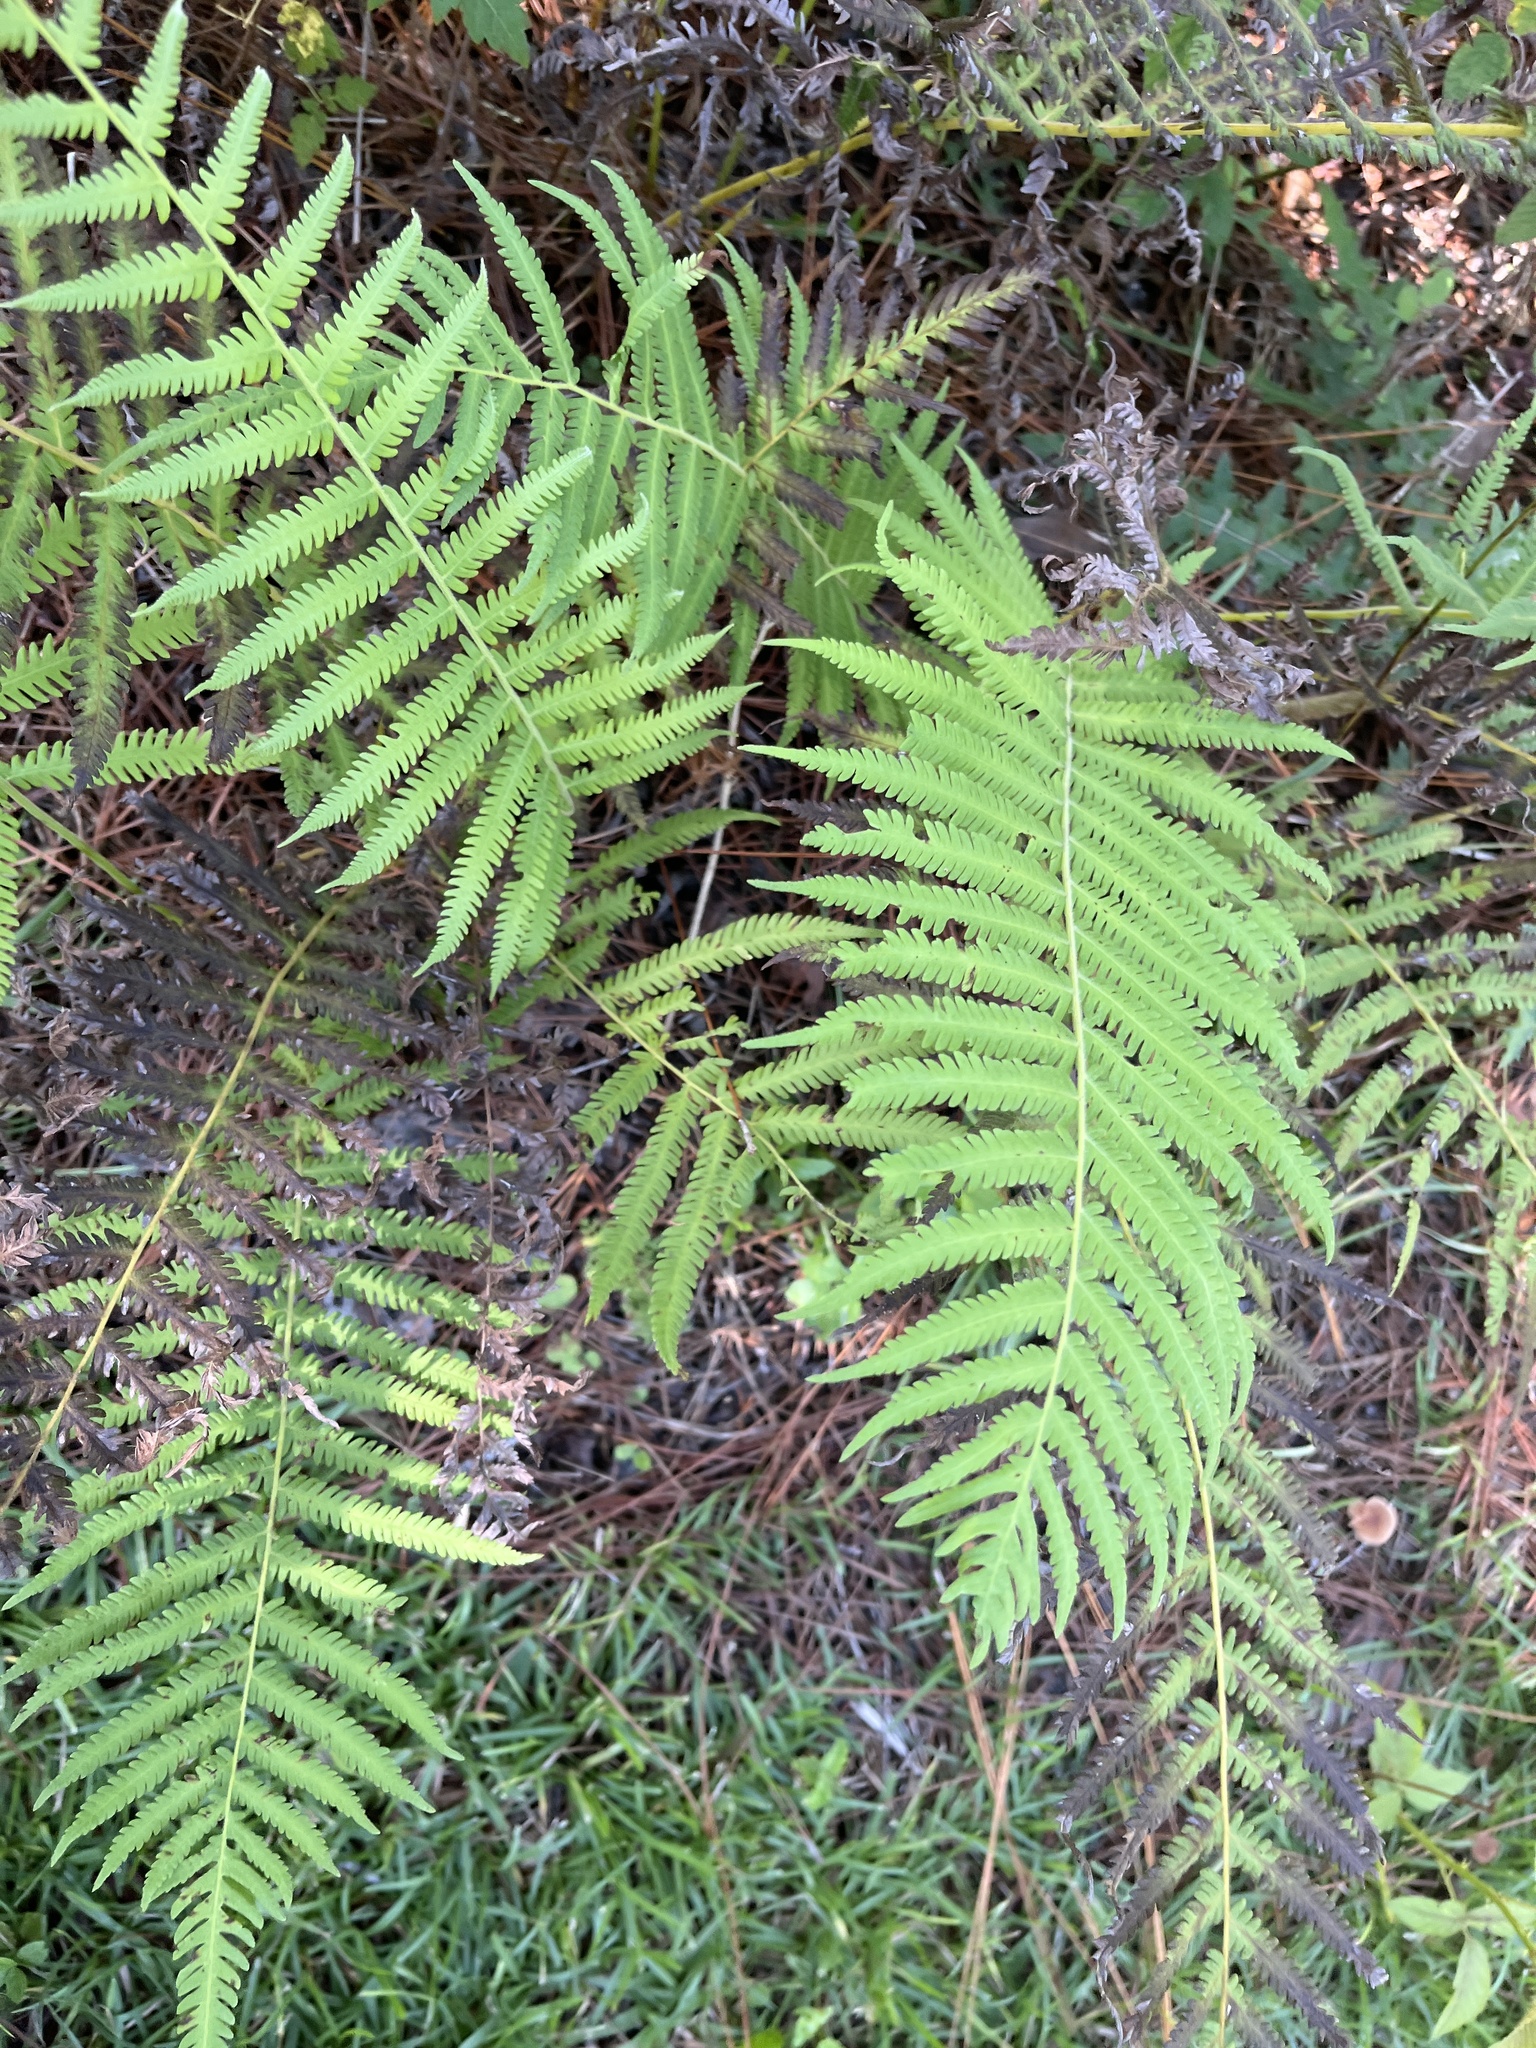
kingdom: Plantae
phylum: Tracheophyta
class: Polypodiopsida
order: Polypodiales
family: Thelypteridaceae
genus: Pelazoneuron
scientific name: Pelazoneuron kunthii
